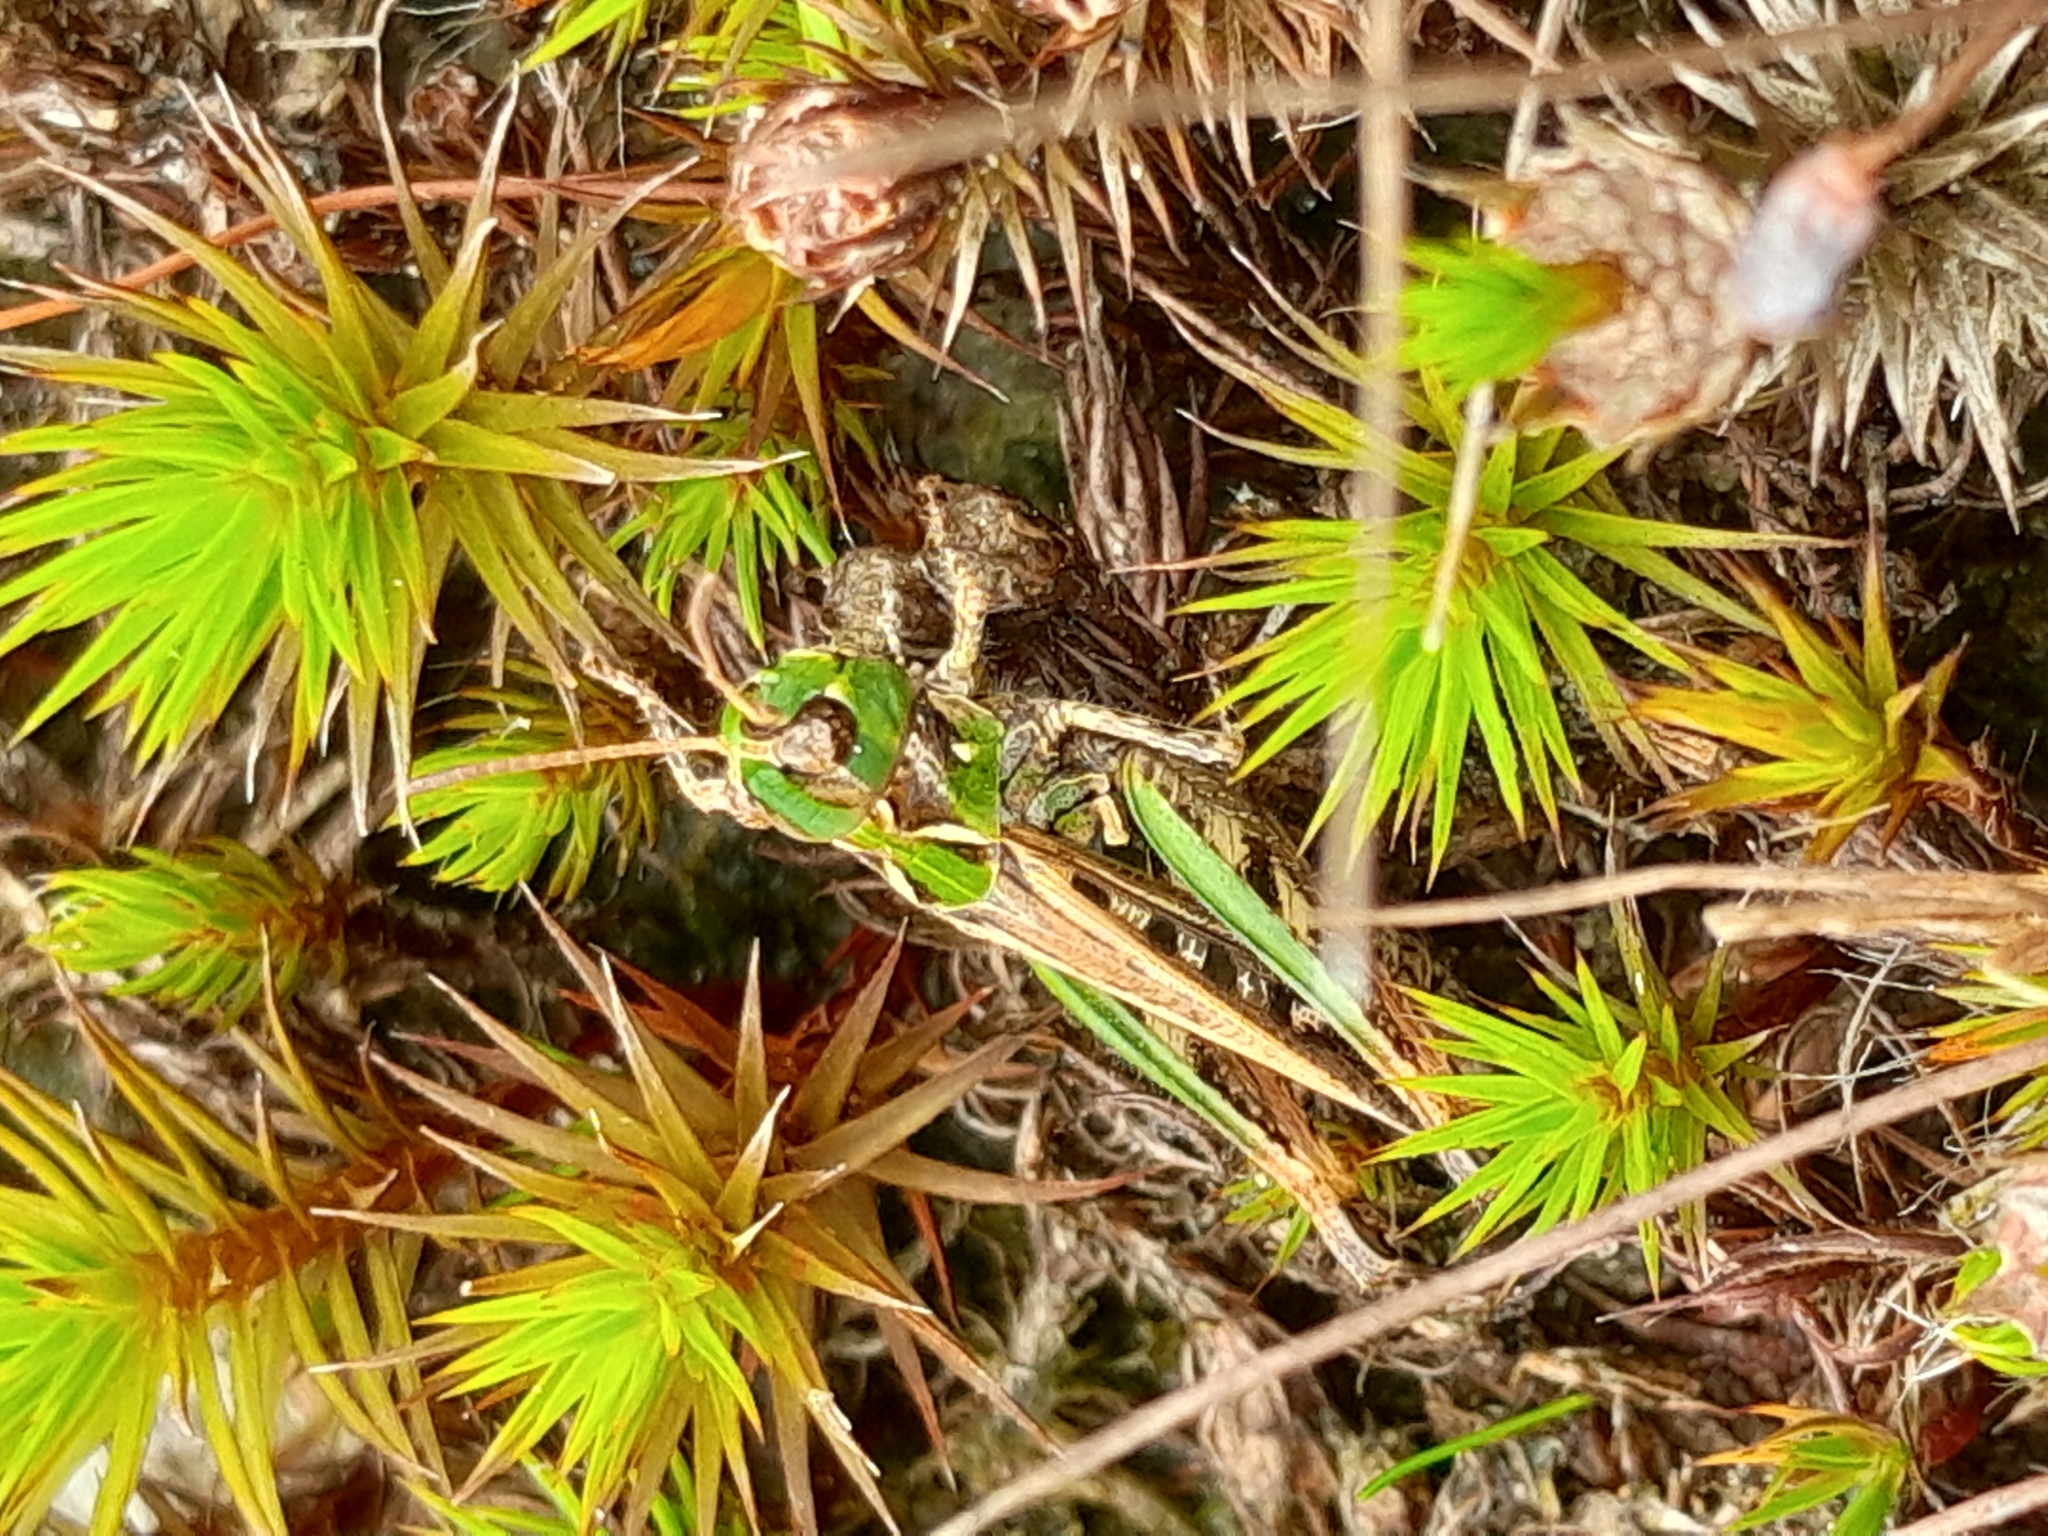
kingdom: Animalia
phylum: Arthropoda
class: Insecta
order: Orthoptera
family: Acrididae
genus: Myrmeleotettix
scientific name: Myrmeleotettix maculatus
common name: Mottled grasshopper
